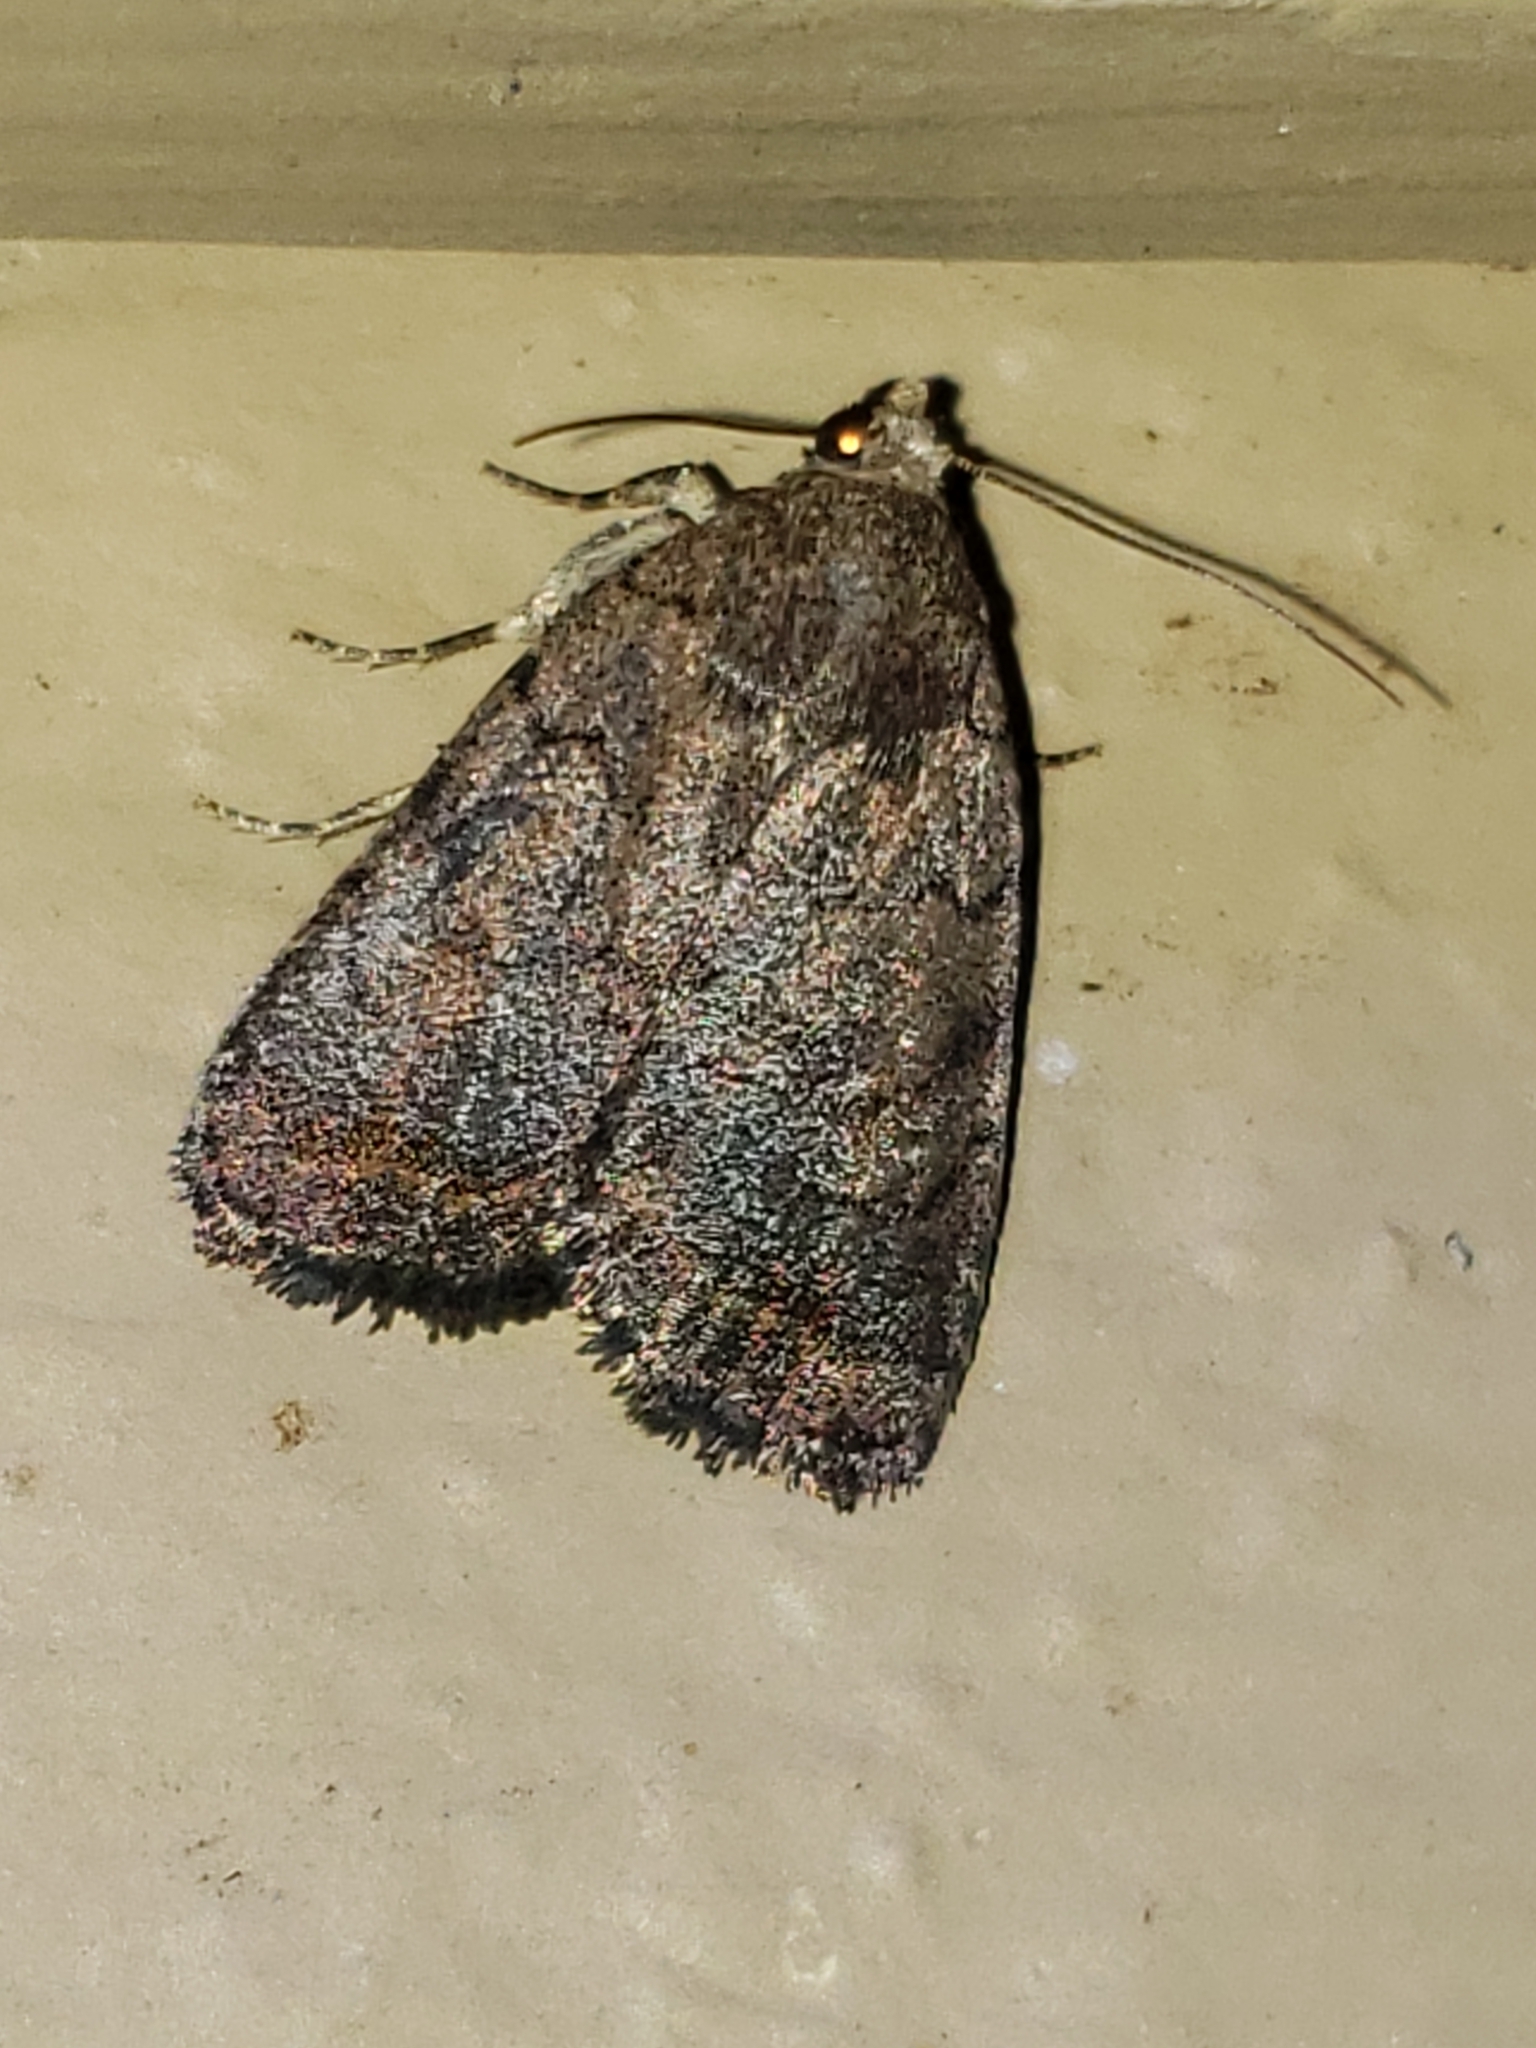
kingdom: Animalia
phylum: Arthropoda
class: Insecta
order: Lepidoptera
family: Noctuidae
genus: Athetis
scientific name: Athetis tarda
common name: Slowpoke moth
